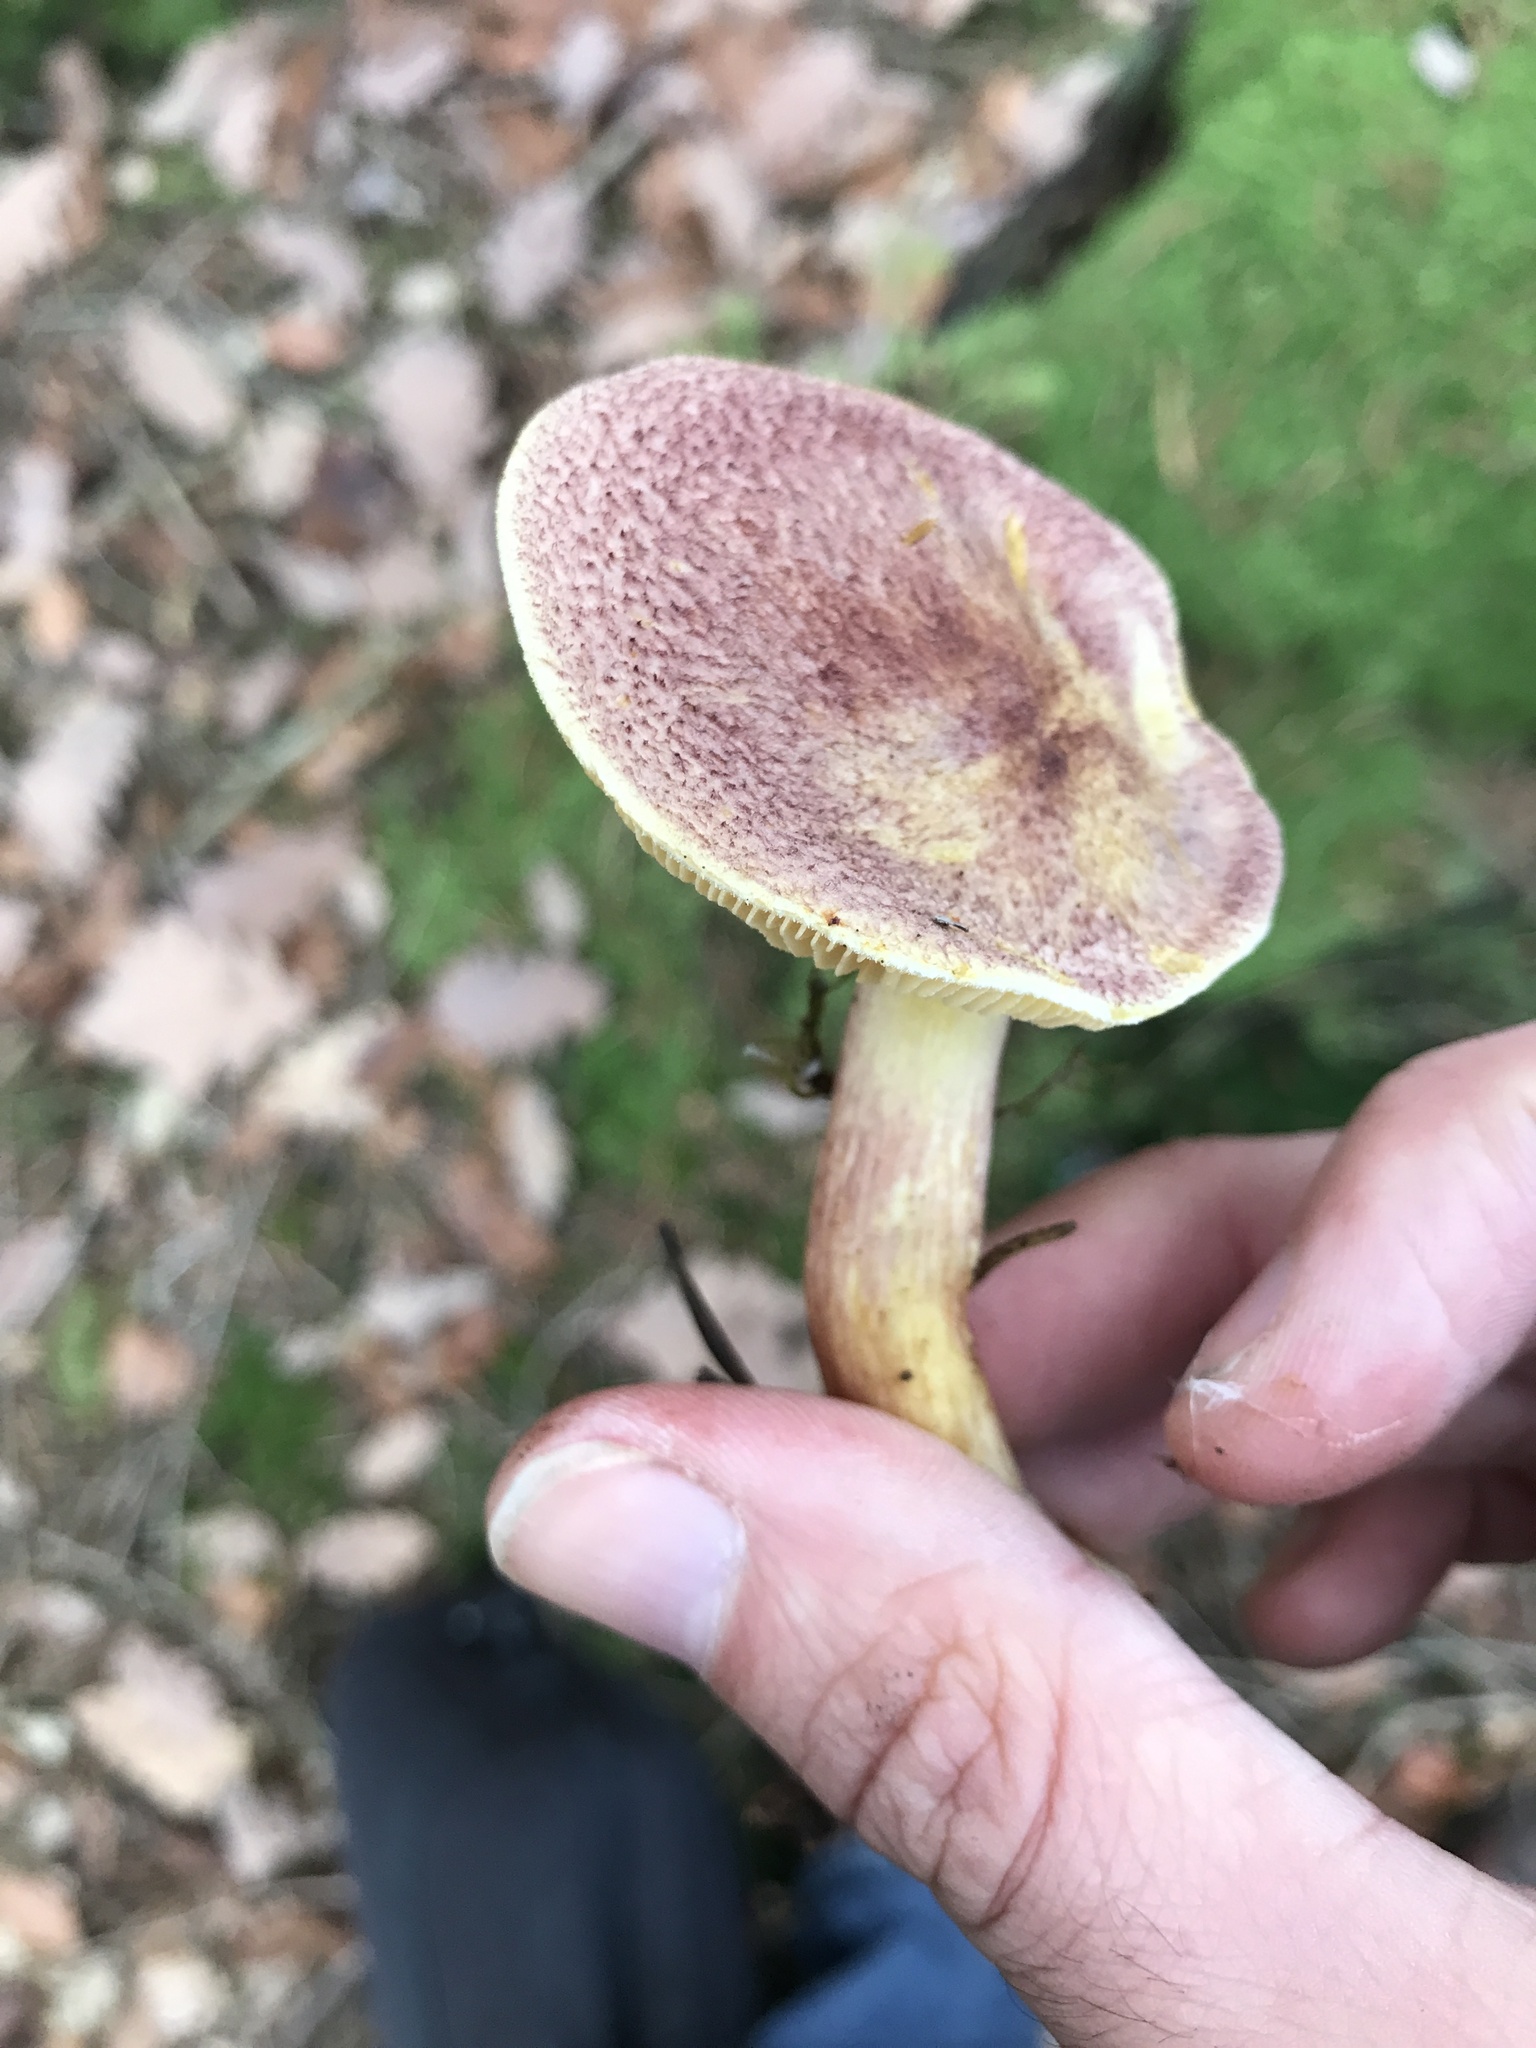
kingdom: Fungi
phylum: Basidiomycota
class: Agaricomycetes
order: Agaricales
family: Tricholomataceae
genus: Tricholomopsis
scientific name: Tricholomopsis rutilans
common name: Plums and custard
